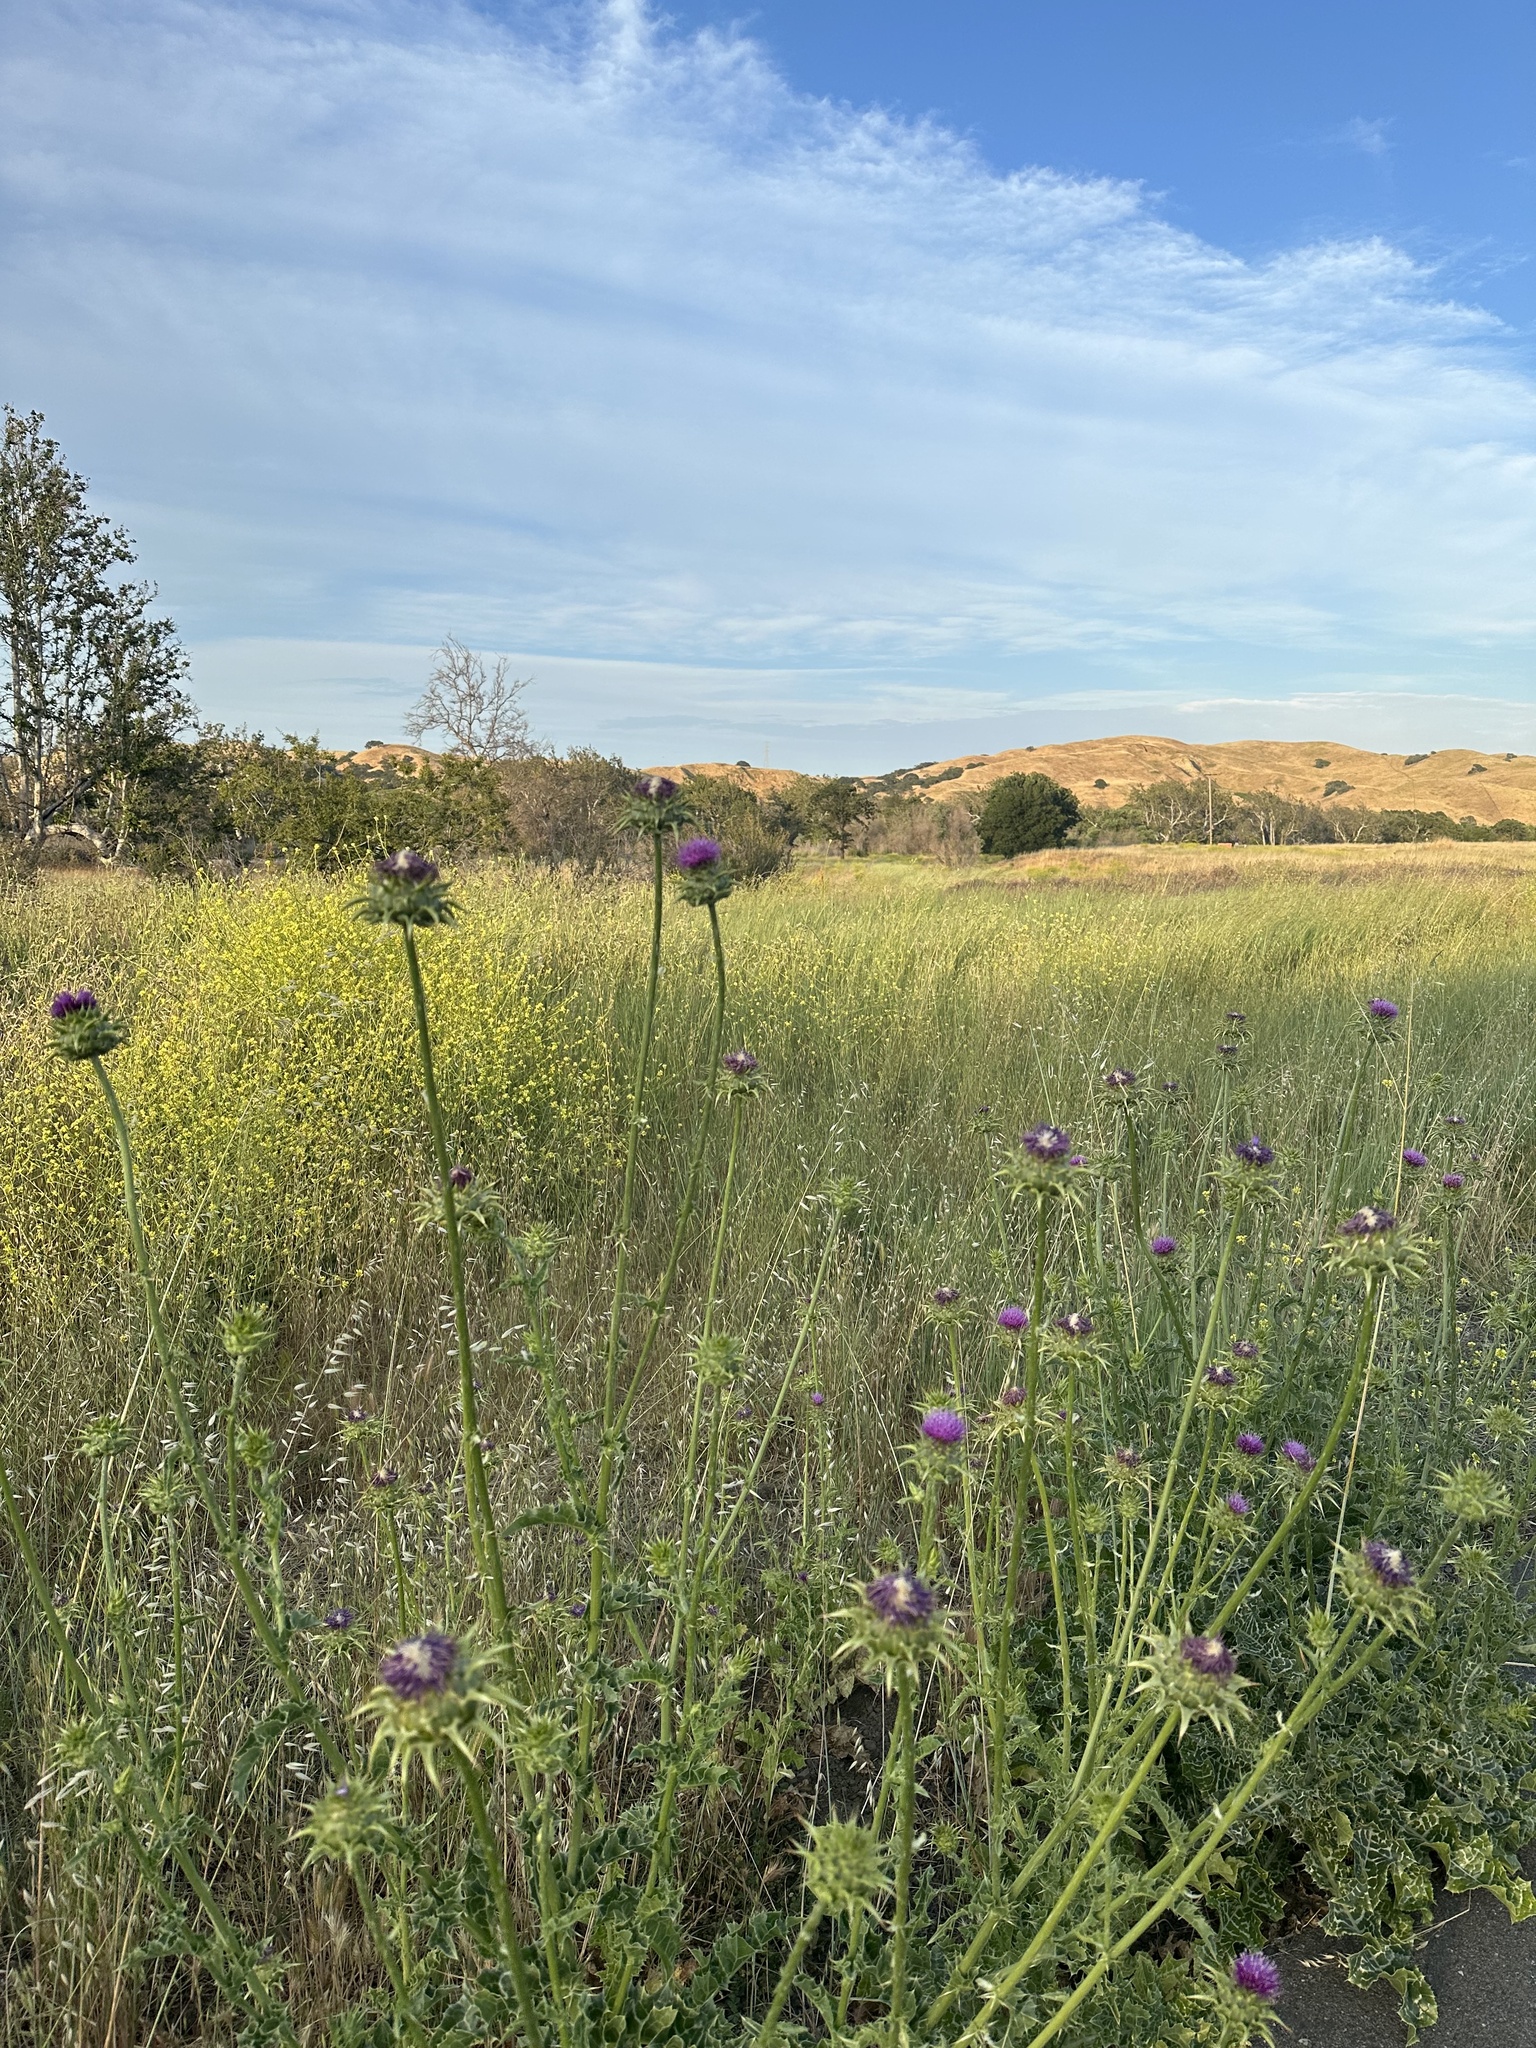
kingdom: Plantae
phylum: Tracheophyta
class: Magnoliopsida
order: Asterales
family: Asteraceae
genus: Silybum
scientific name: Silybum marianum
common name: Milk thistle
